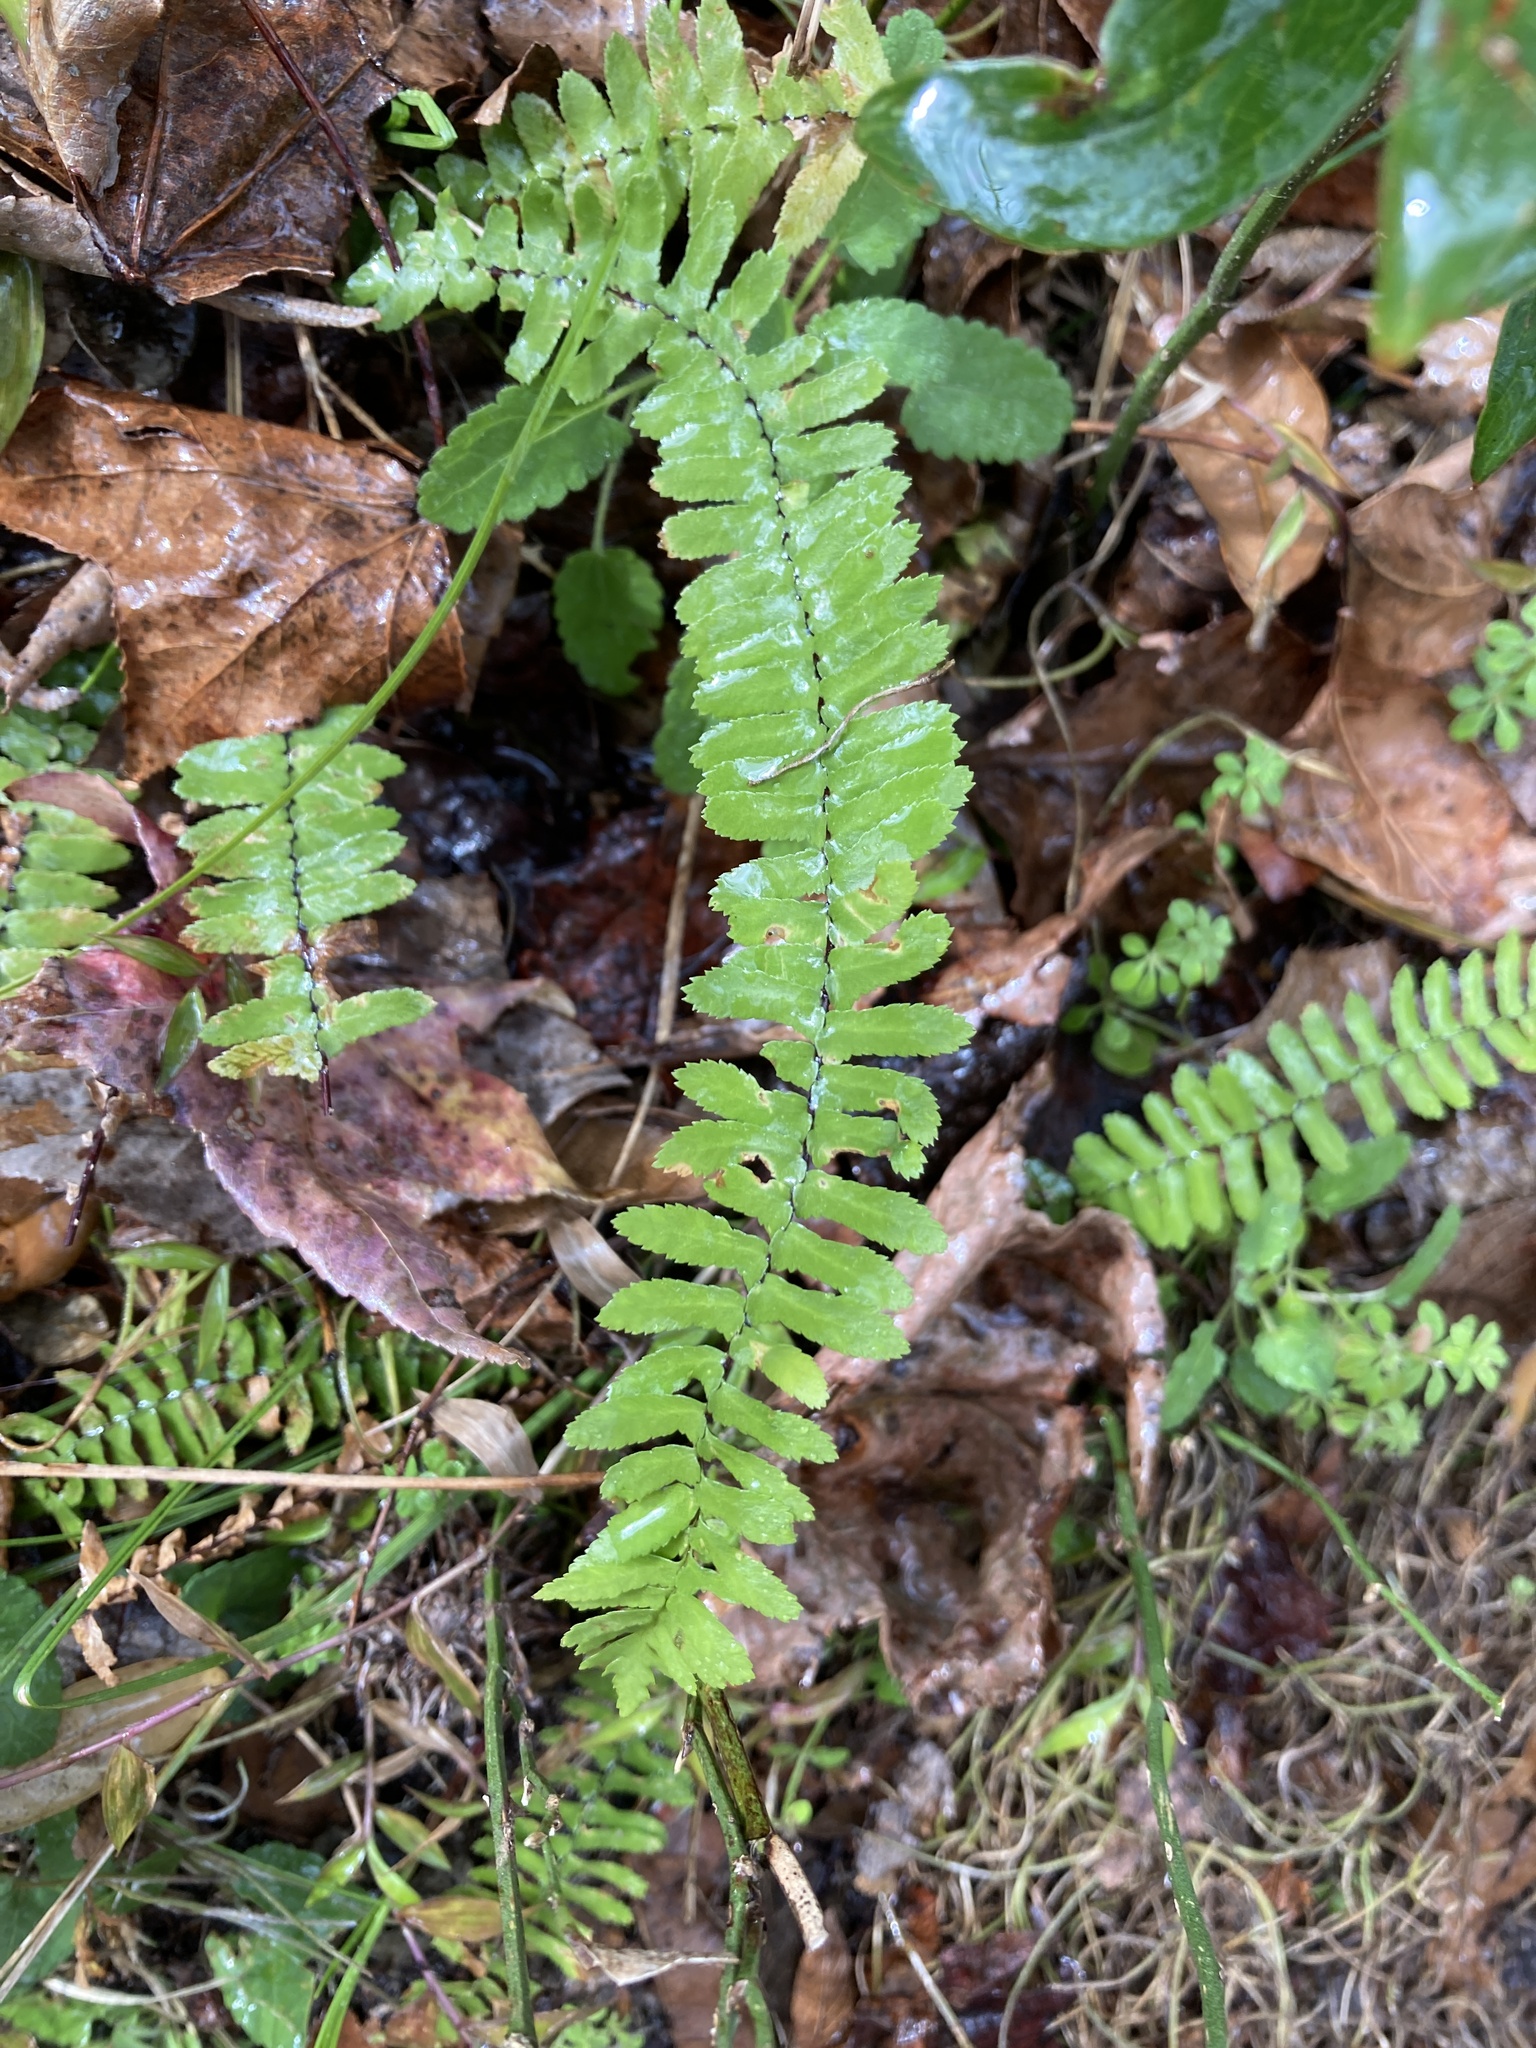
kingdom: Plantae
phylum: Tracheophyta
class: Polypodiopsida
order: Polypodiales
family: Aspleniaceae
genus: Asplenium
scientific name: Asplenium platyneuron
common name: Ebony spleenwort
